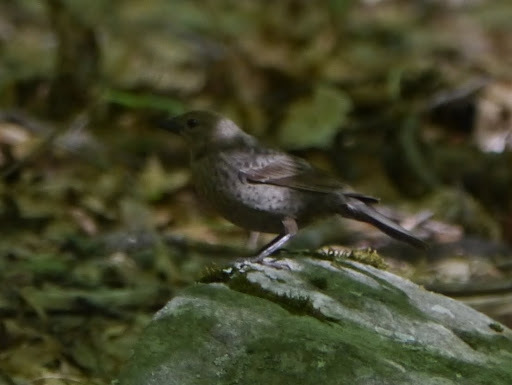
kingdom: Animalia
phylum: Chordata
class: Aves
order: Passeriformes
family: Icteridae
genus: Molothrus
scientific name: Molothrus ater
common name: Brown-headed cowbird
